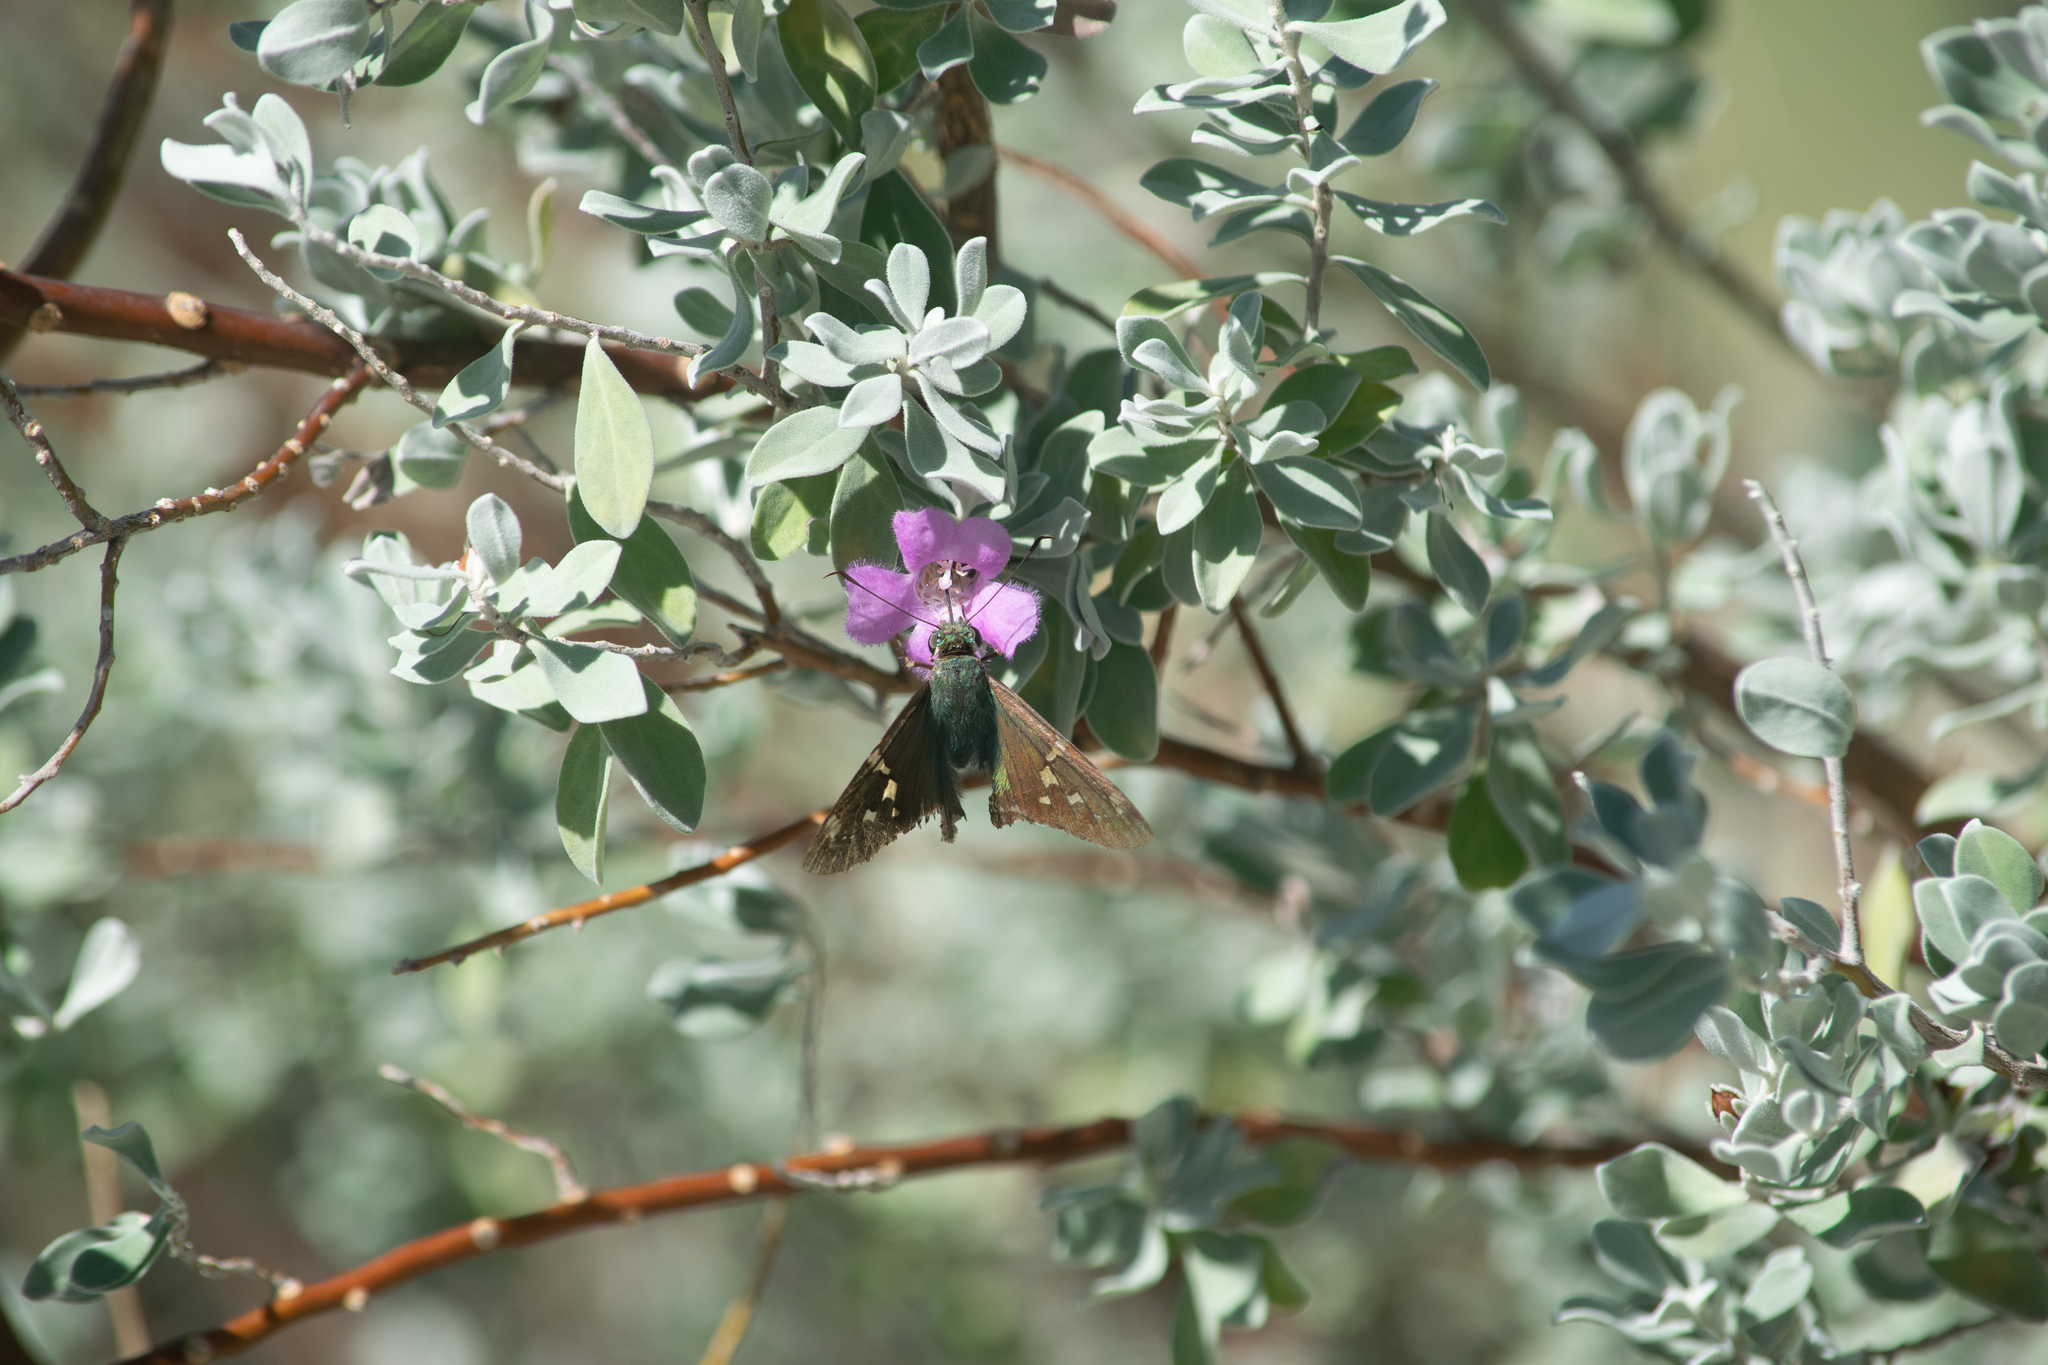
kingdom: Animalia
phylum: Arthropoda
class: Insecta
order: Lepidoptera
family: Hesperiidae
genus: Urbanus
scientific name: Urbanus proteus
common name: Long-tailed skipper
